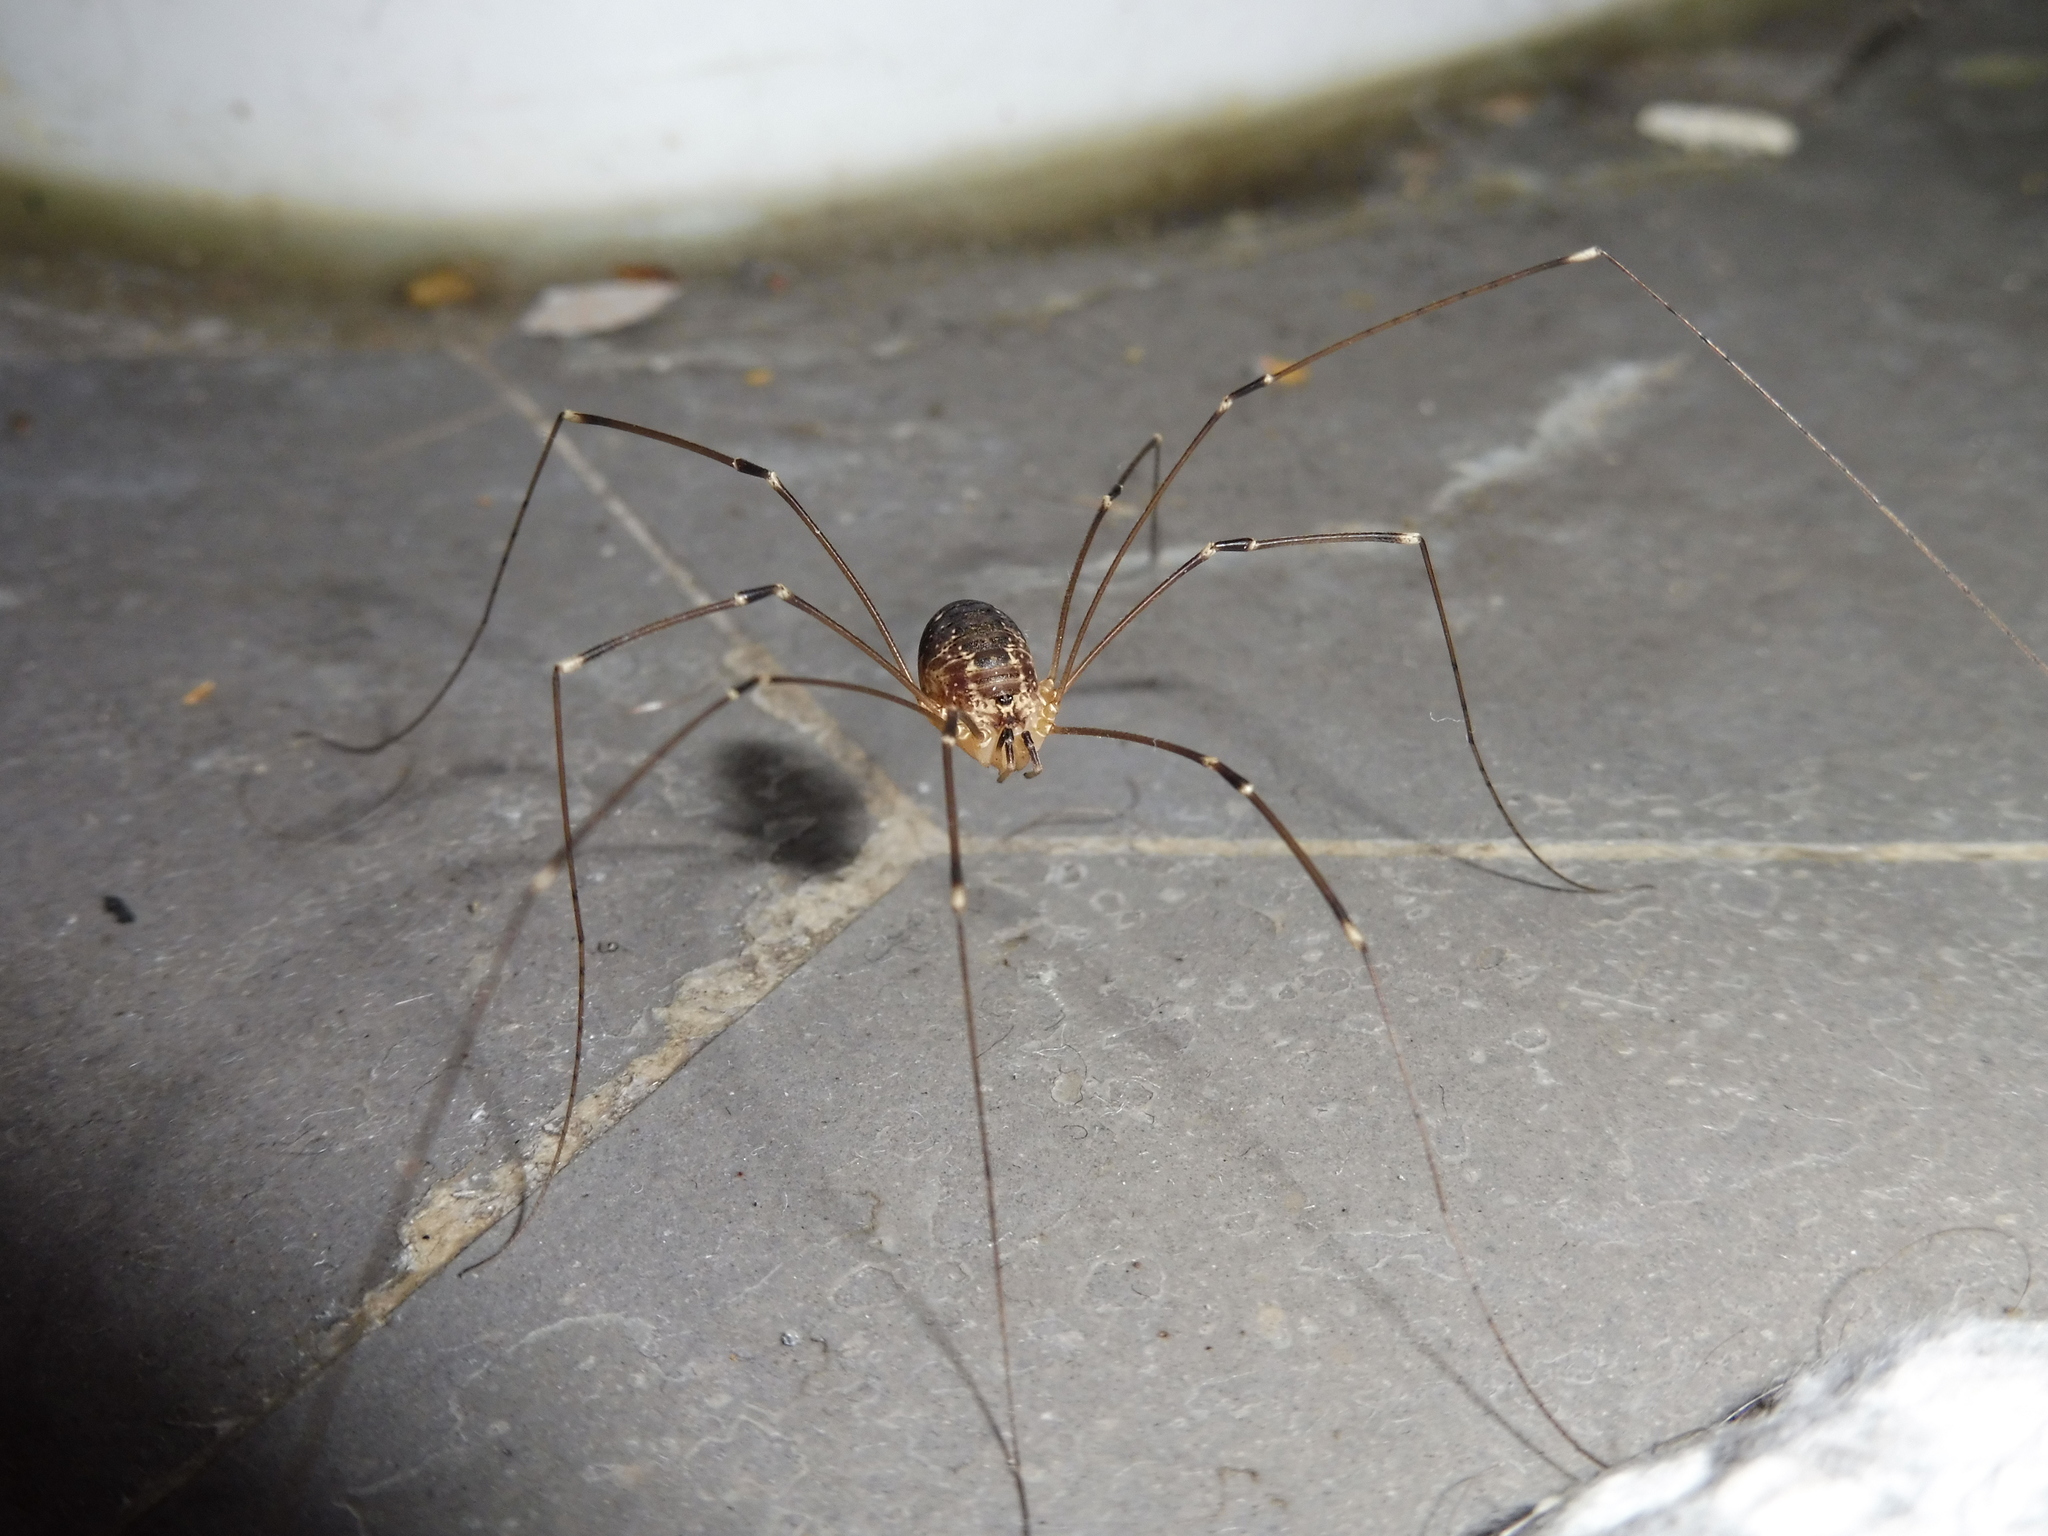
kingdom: Animalia
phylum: Arthropoda
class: Arachnida
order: Opiliones
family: Sclerosomatidae
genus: Leiobunum
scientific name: Leiobunum gracile
